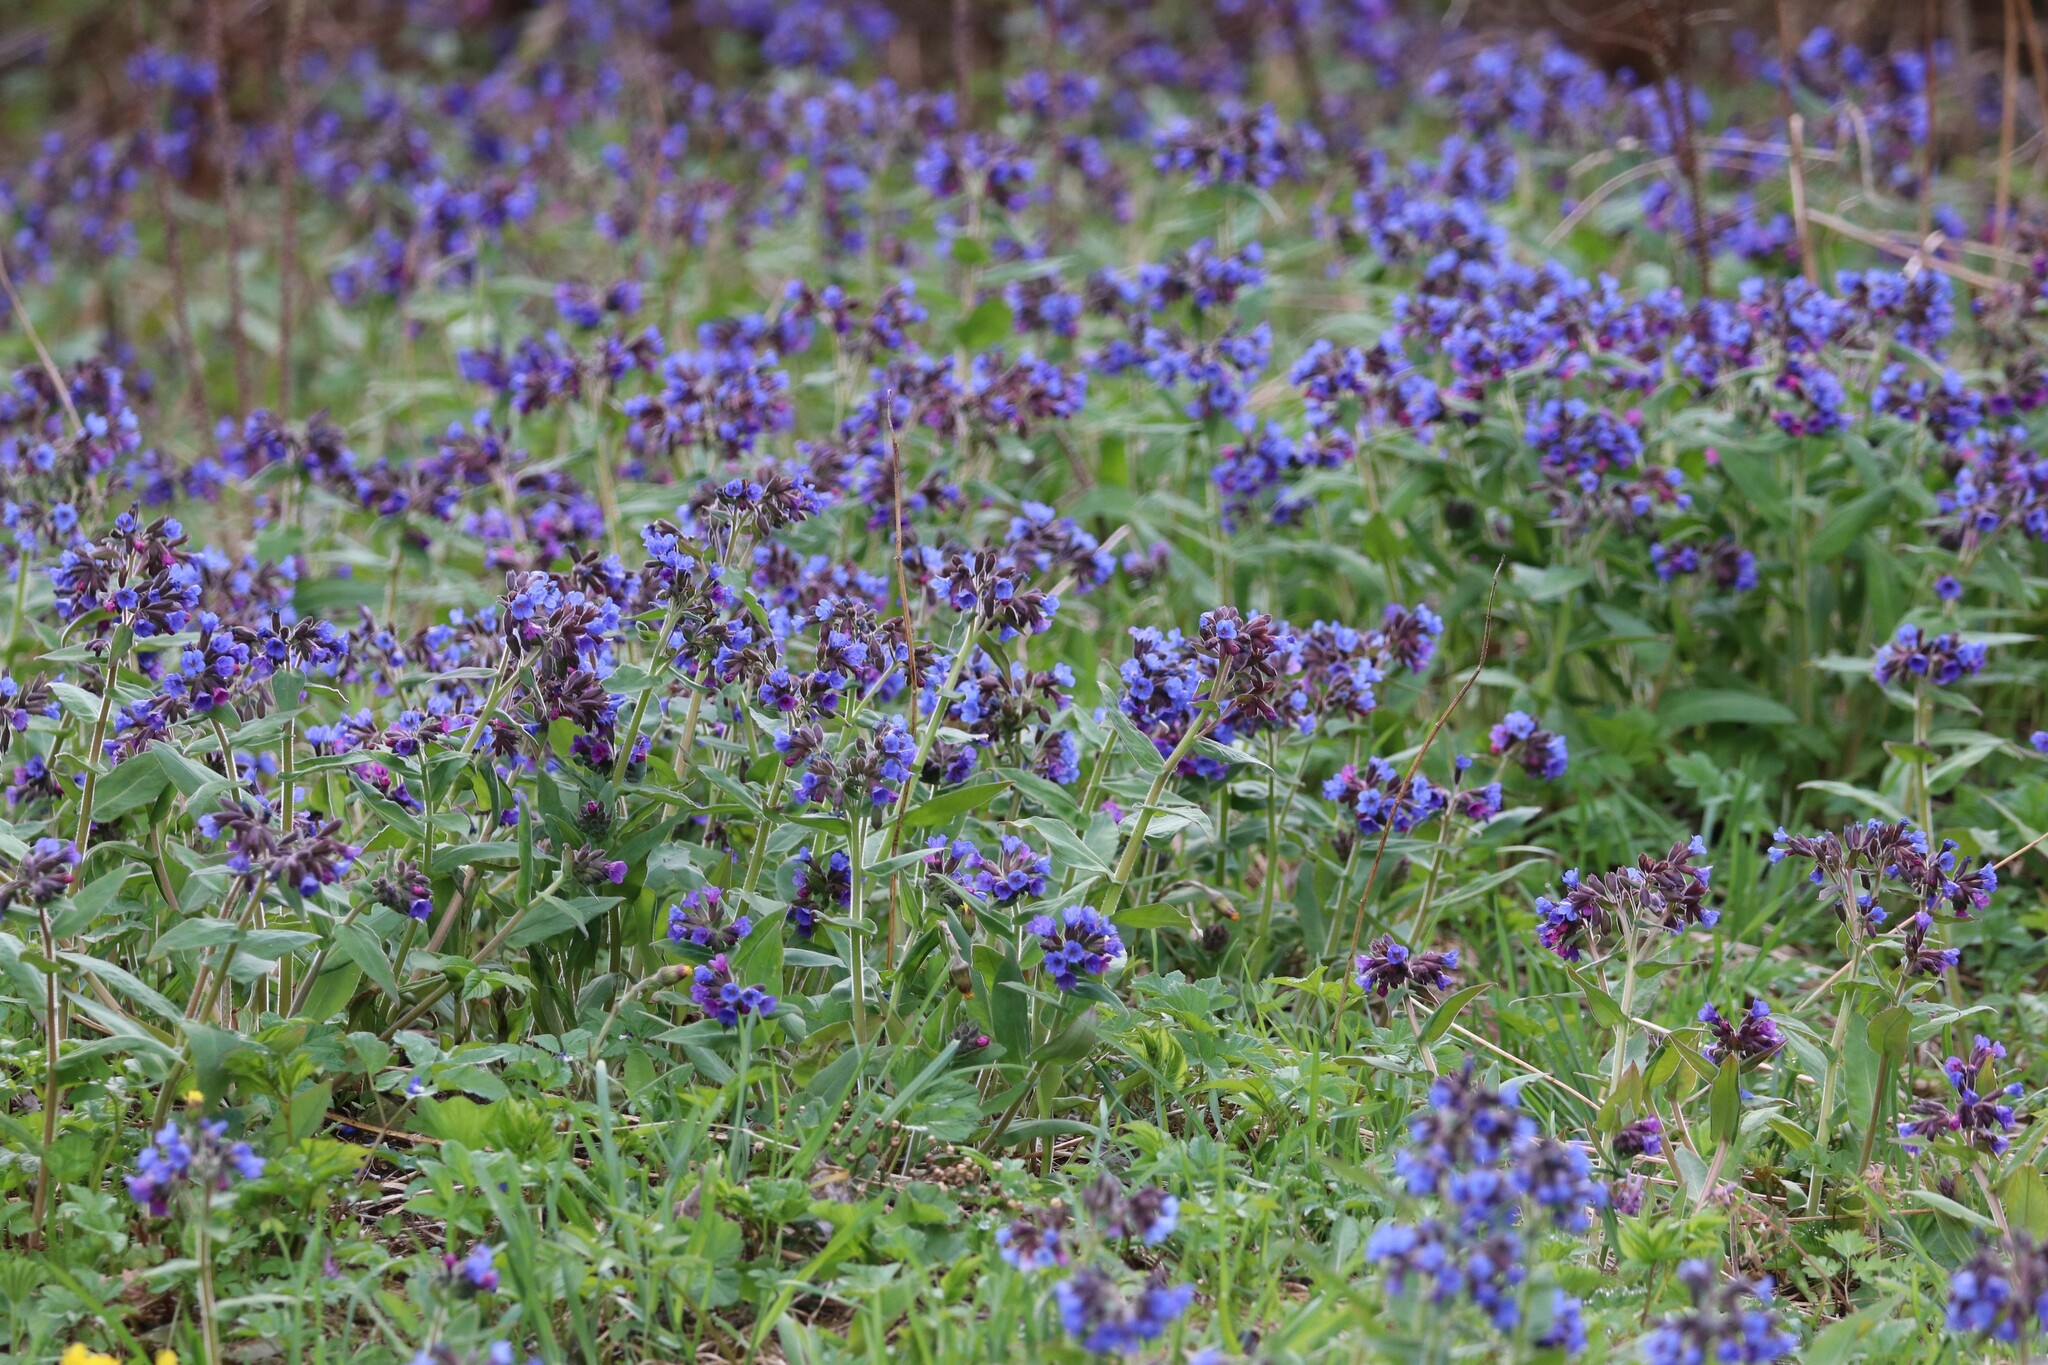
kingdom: Plantae
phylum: Tracheophyta
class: Magnoliopsida
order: Boraginales
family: Boraginaceae
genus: Pulmonaria
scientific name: Pulmonaria mollis
